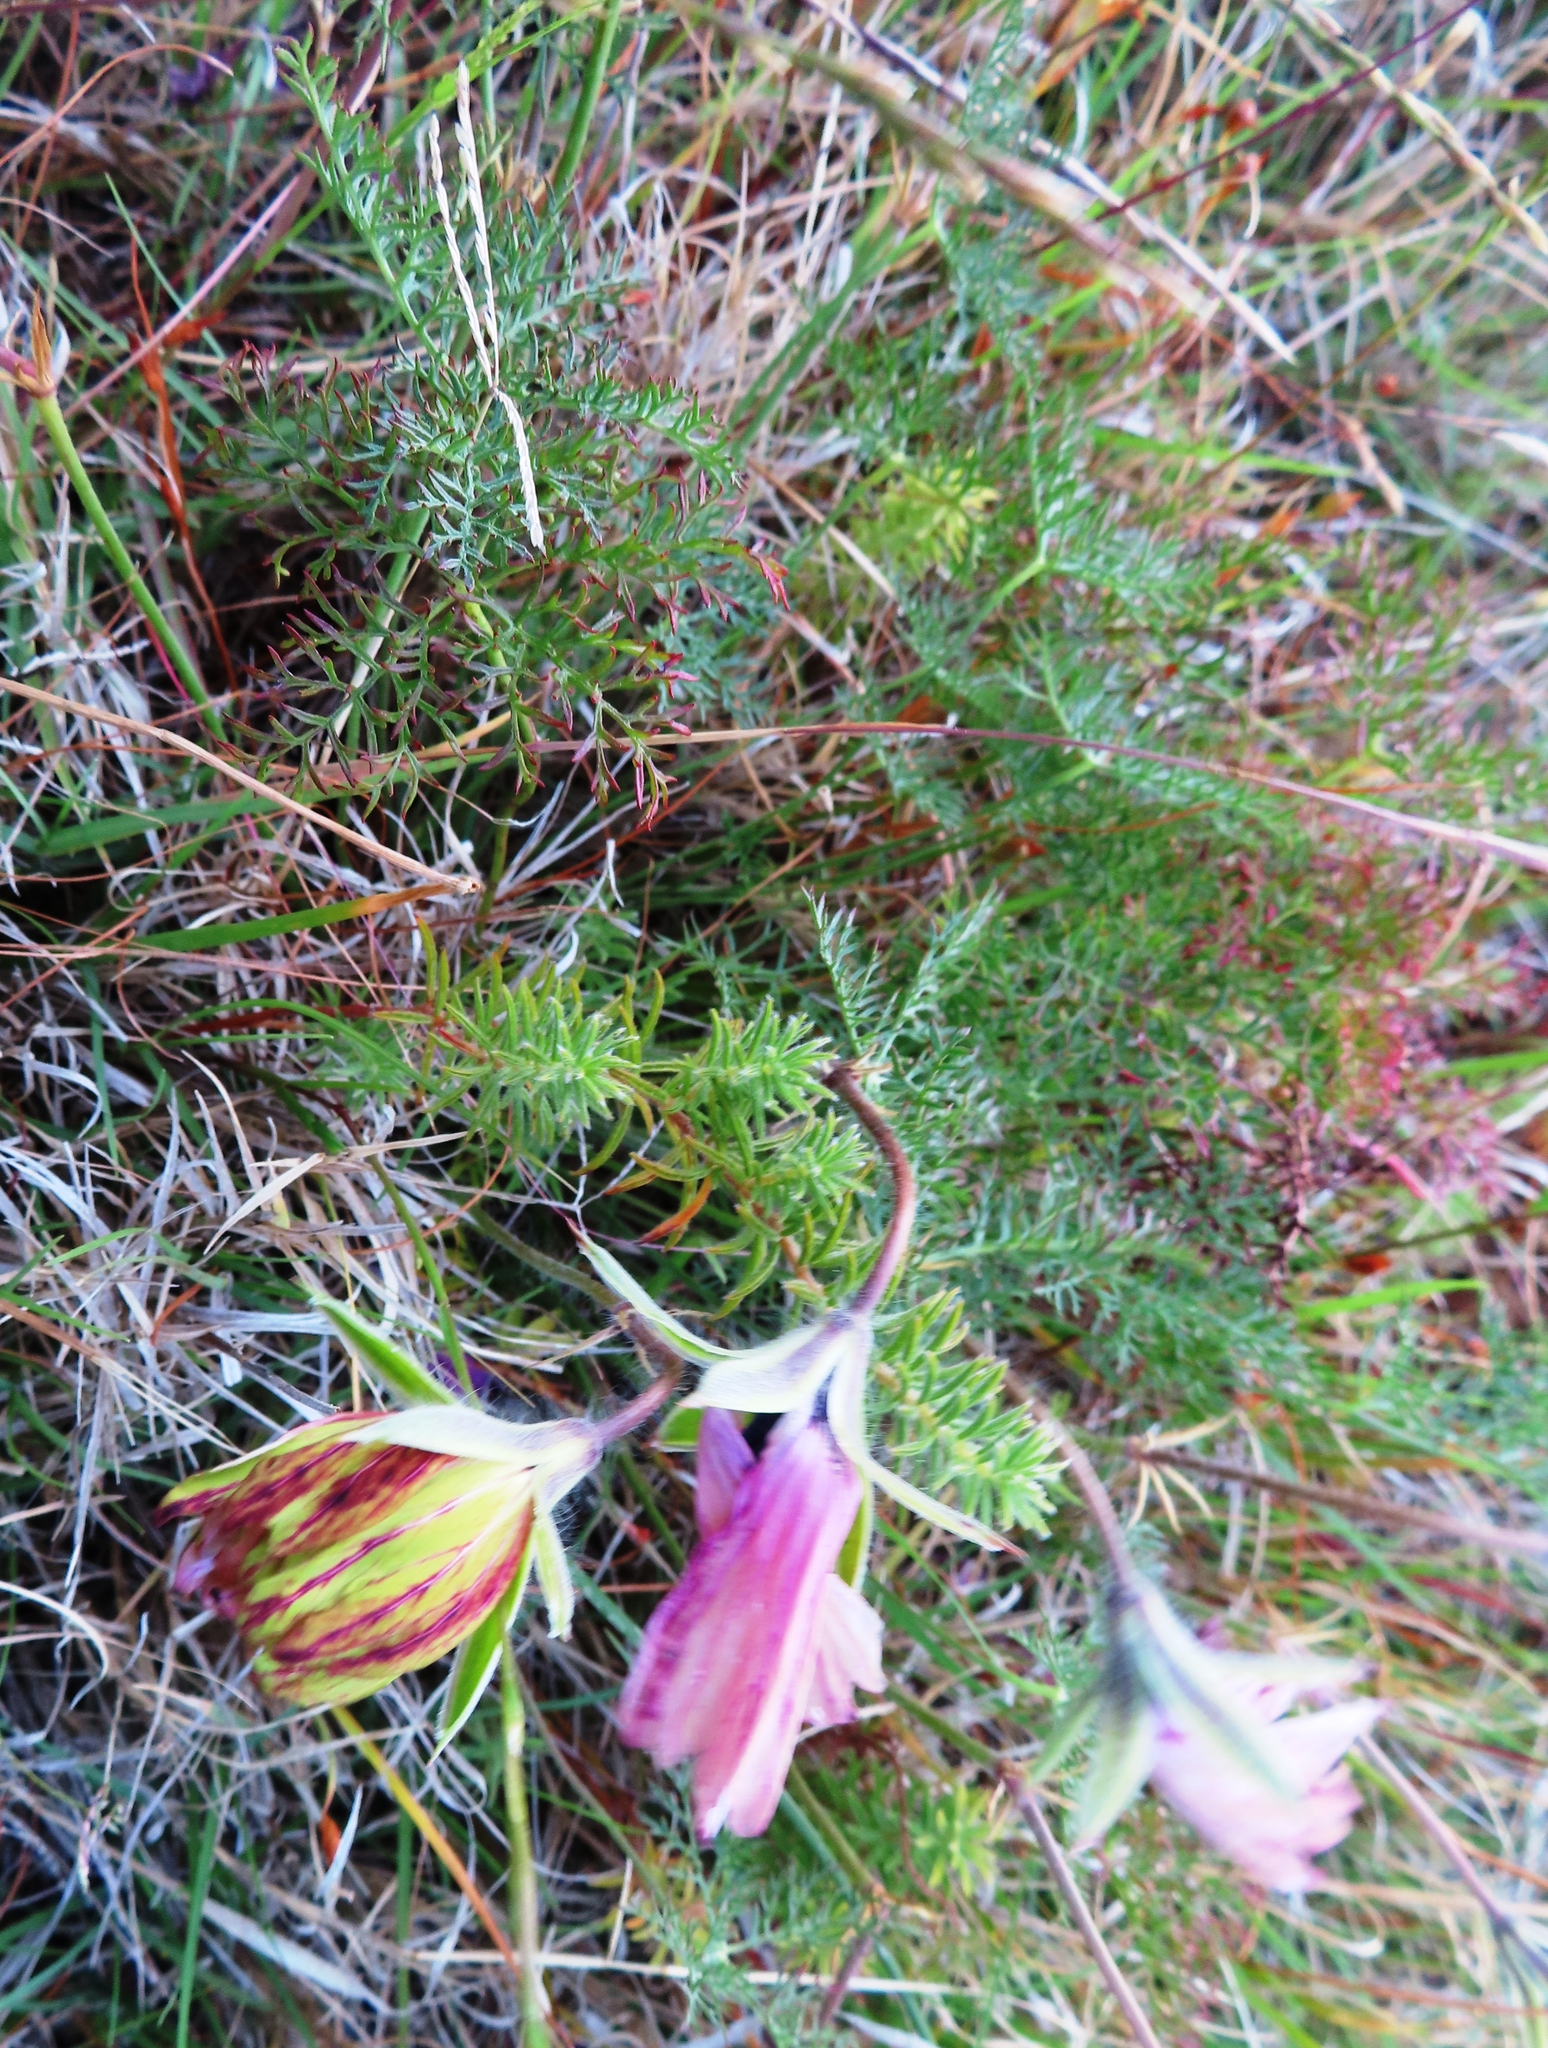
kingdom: Plantae
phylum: Tracheophyta
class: Magnoliopsida
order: Geraniales
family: Geraniaceae
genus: Monsonia
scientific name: Monsonia speciosa
